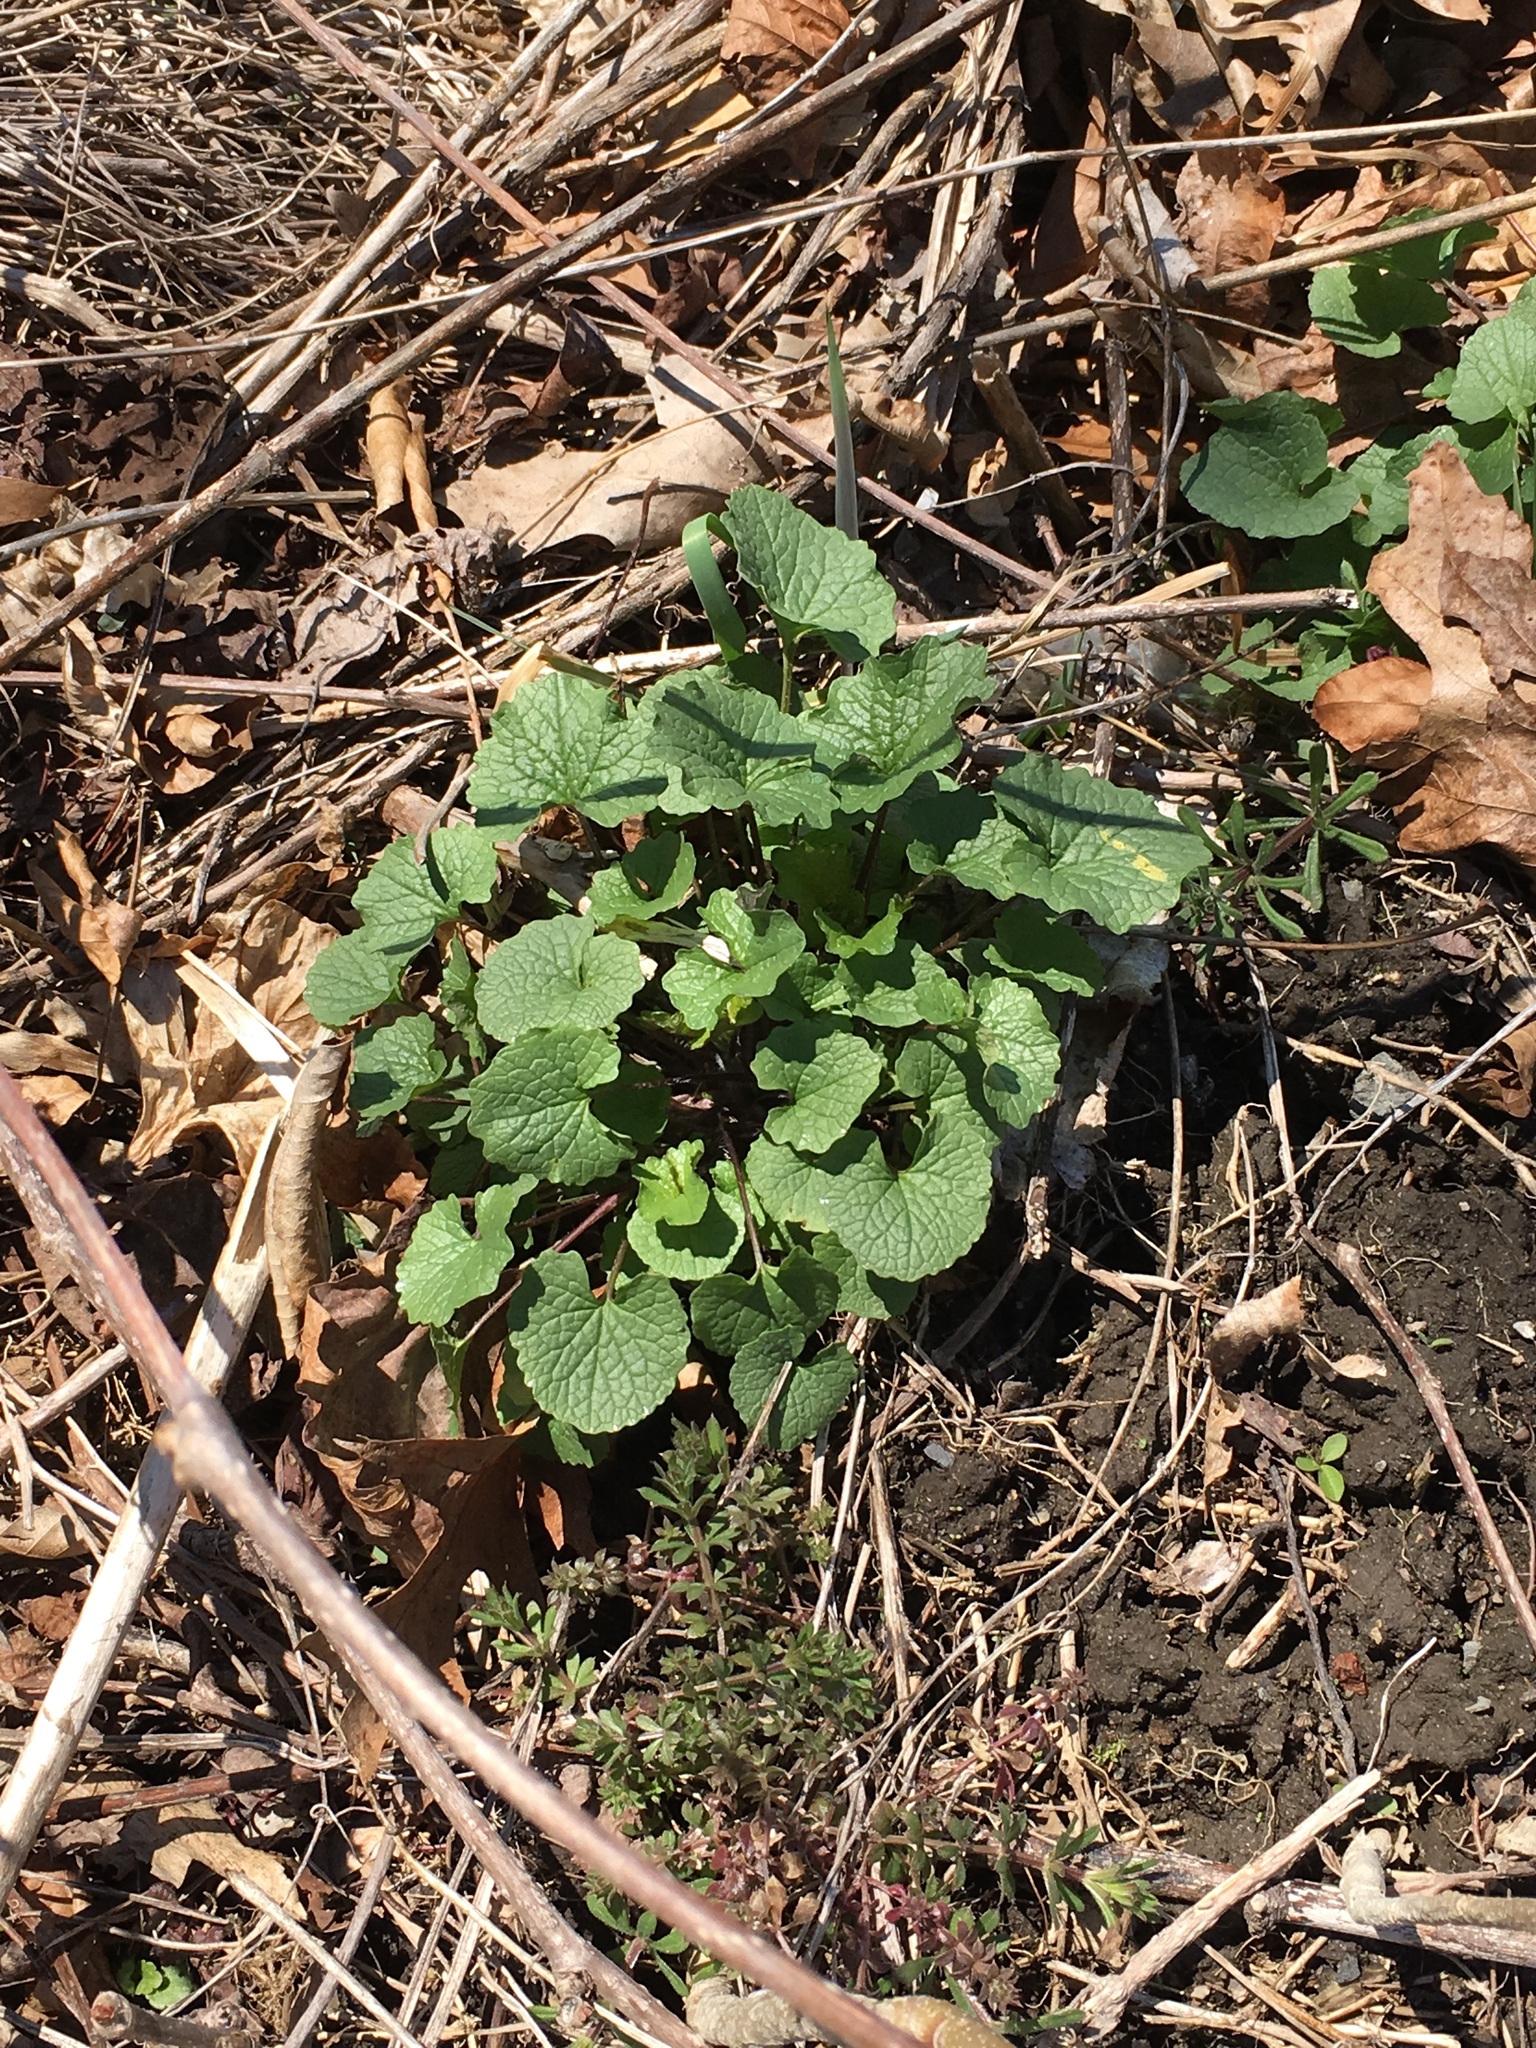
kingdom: Plantae
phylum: Tracheophyta
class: Magnoliopsida
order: Brassicales
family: Brassicaceae
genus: Alliaria
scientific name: Alliaria petiolata
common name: Garlic mustard
